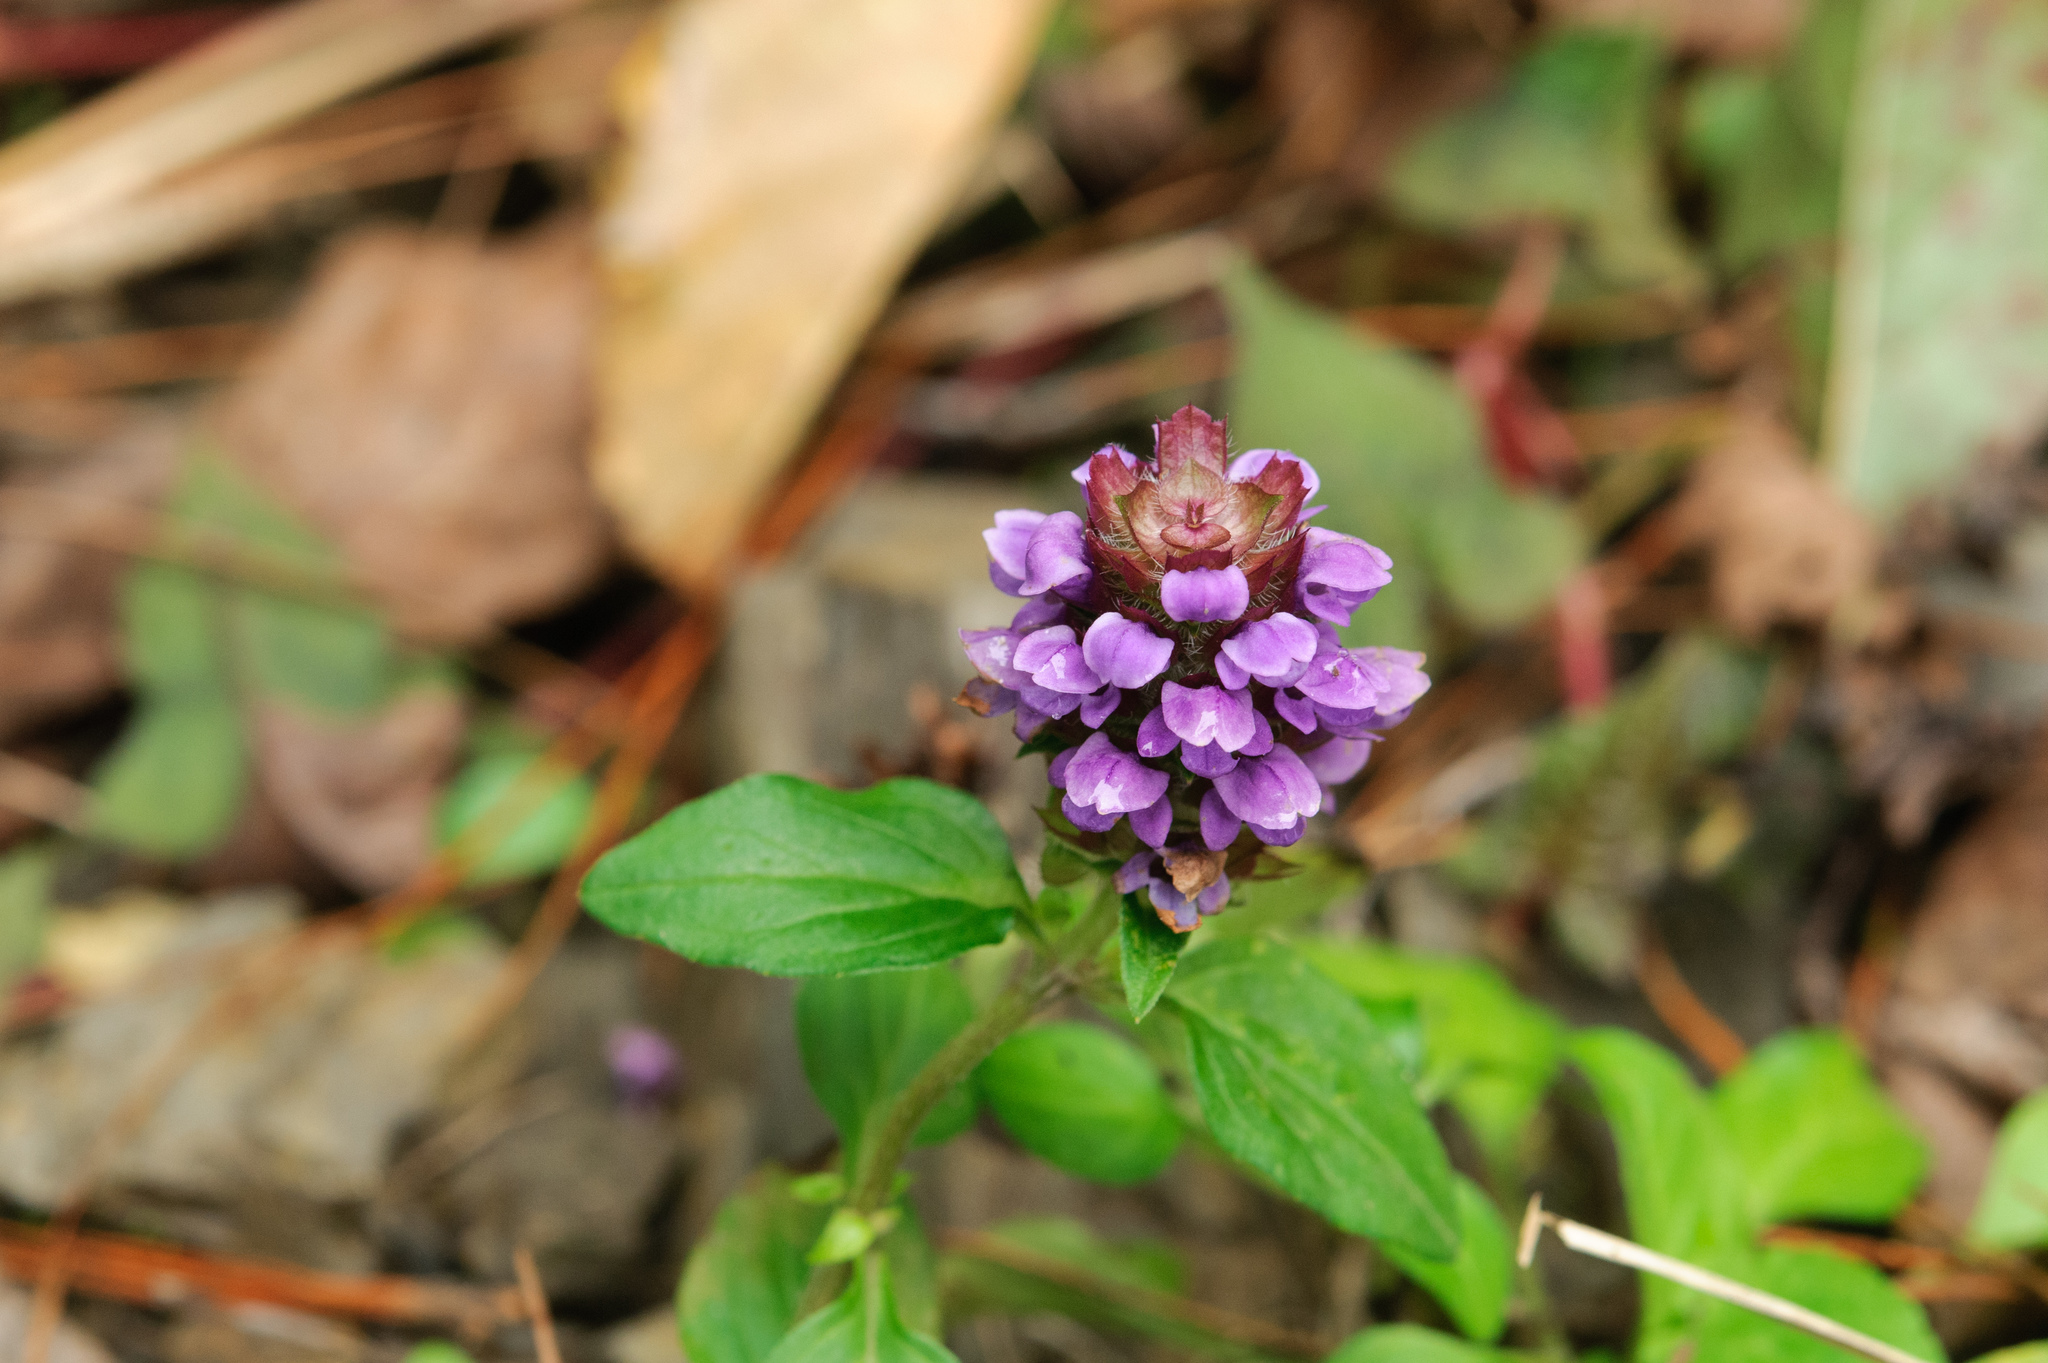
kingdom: Plantae
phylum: Tracheophyta
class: Magnoliopsida
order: Lamiales
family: Lamiaceae
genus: Prunella
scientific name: Prunella vulgaris
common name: Heal-all
